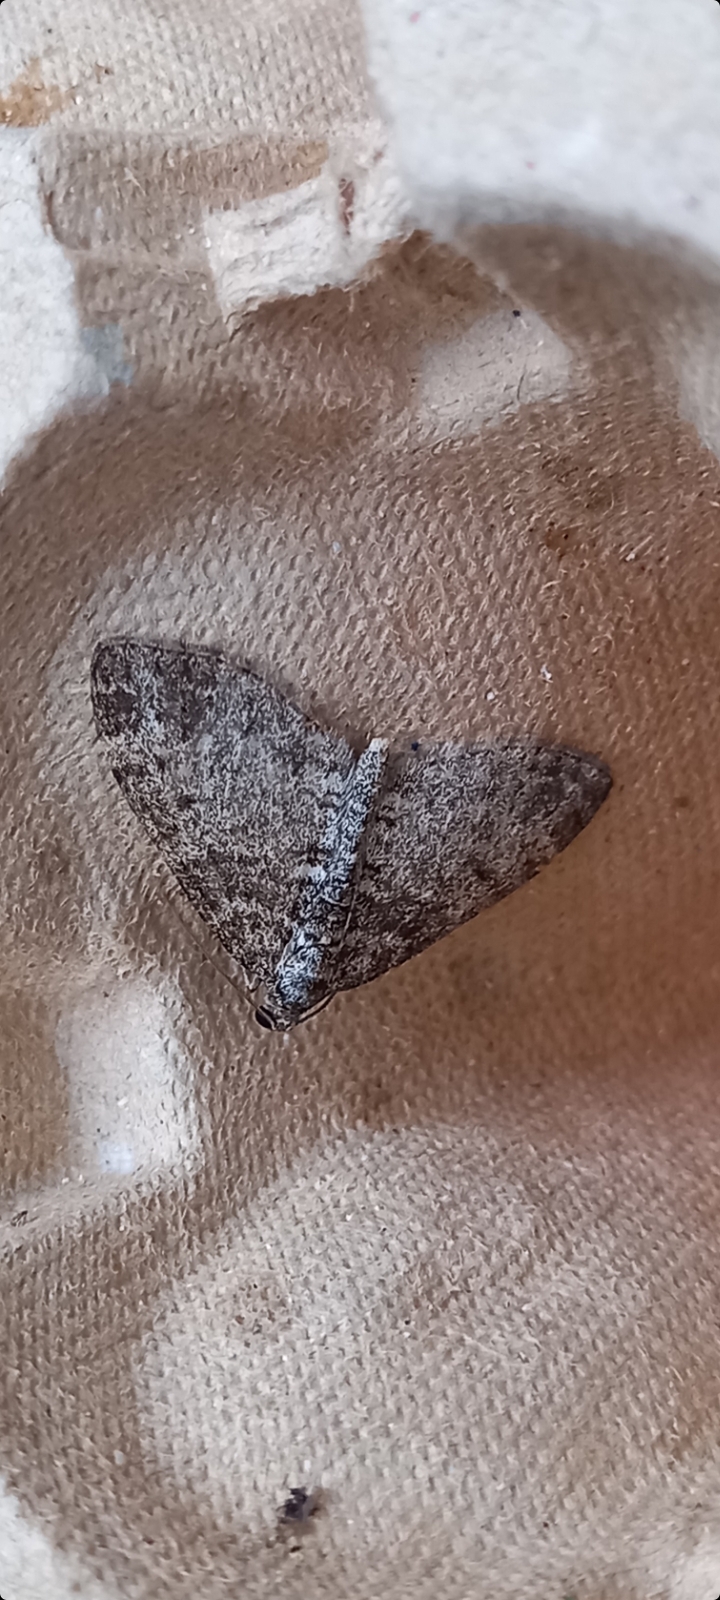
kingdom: Animalia
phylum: Arthropoda
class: Insecta
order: Lepidoptera
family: Geometridae
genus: Lobophora
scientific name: Lobophora halterata
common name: Seraphim
